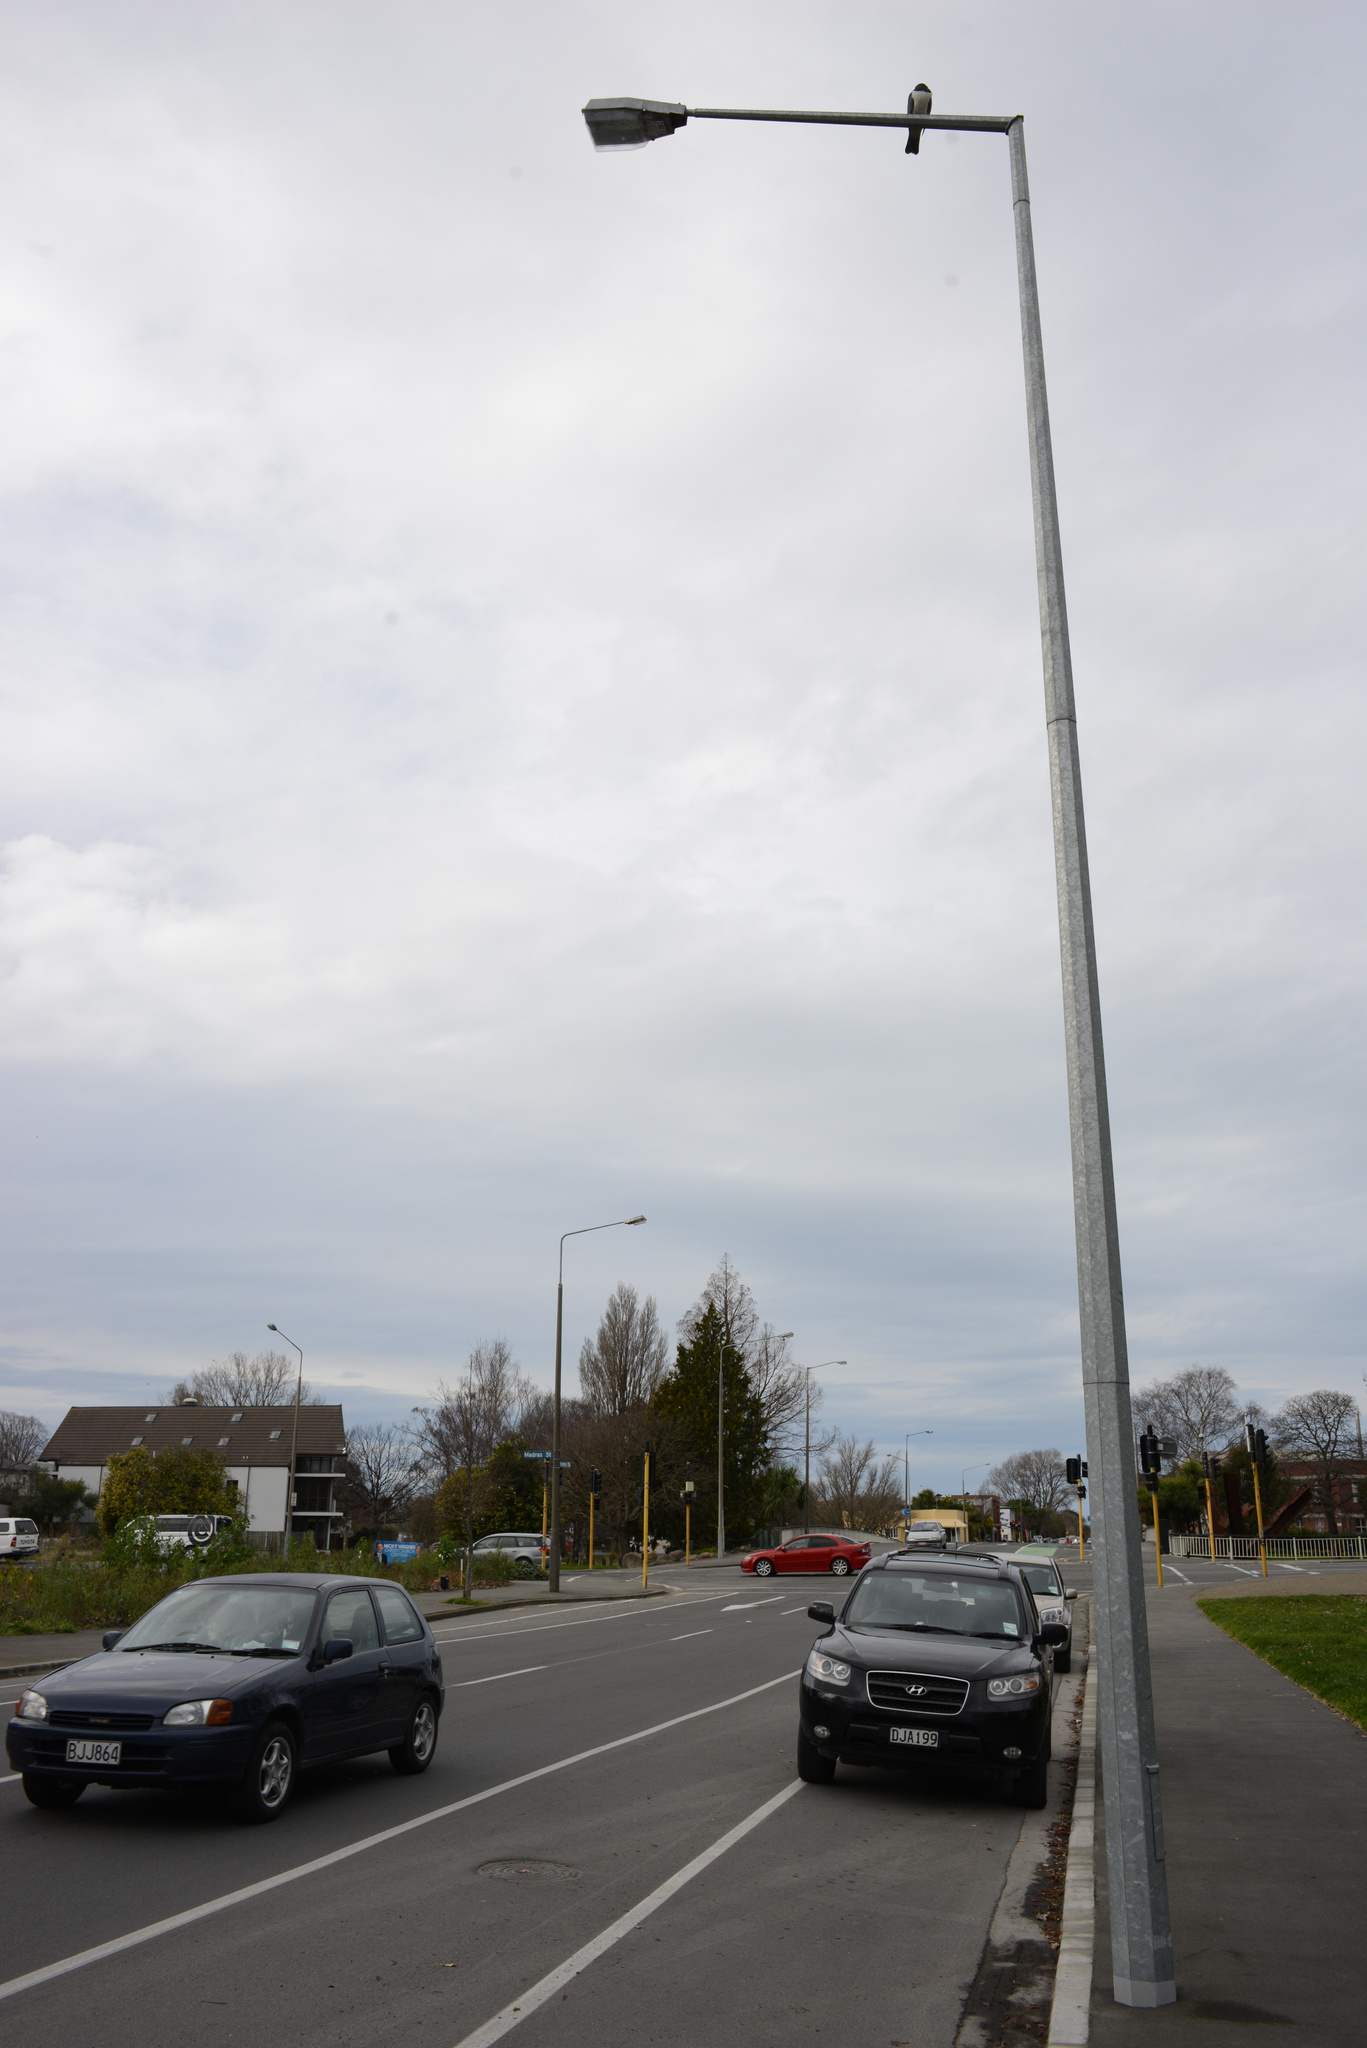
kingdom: Animalia
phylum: Chordata
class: Aves
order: Columbiformes
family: Columbidae
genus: Hemiphaga
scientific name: Hemiphaga novaeseelandiae
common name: New zealand pigeon
